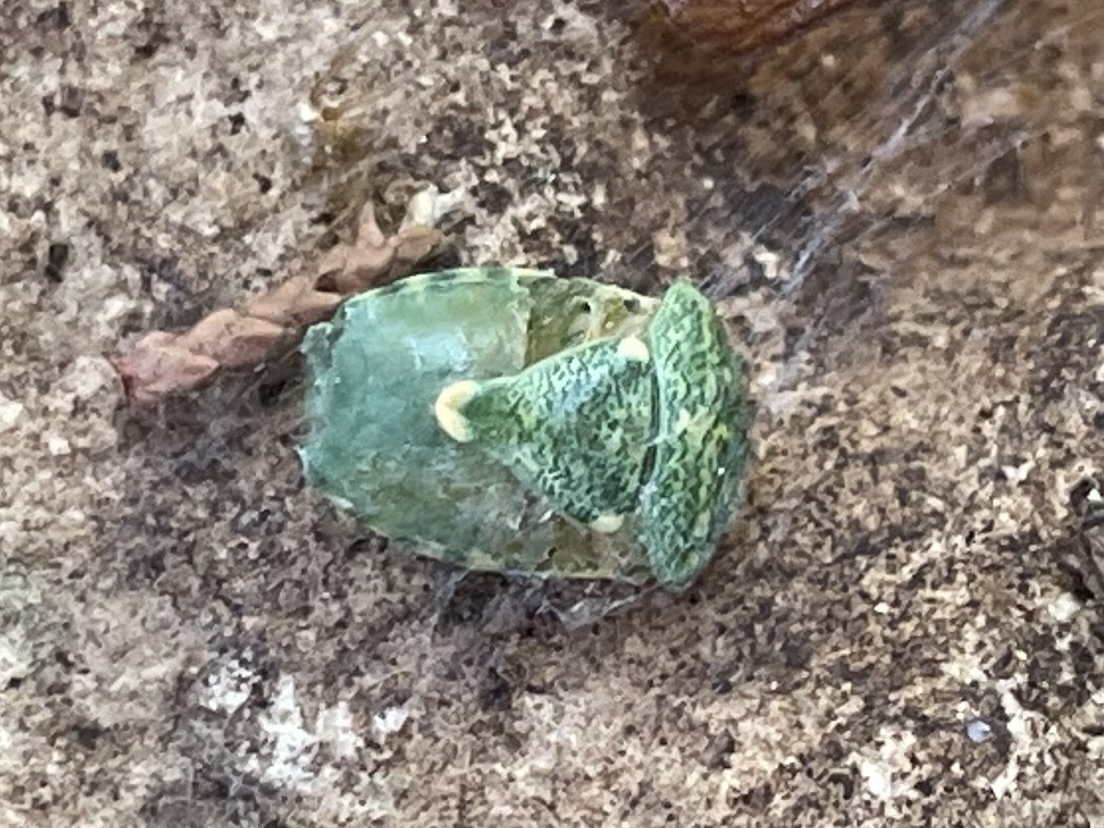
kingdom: Animalia
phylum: Arthropoda
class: Insecta
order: Hemiptera
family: Pentatomidae
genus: Banasa
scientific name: Banasa euchlora
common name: Cedar berry bug
